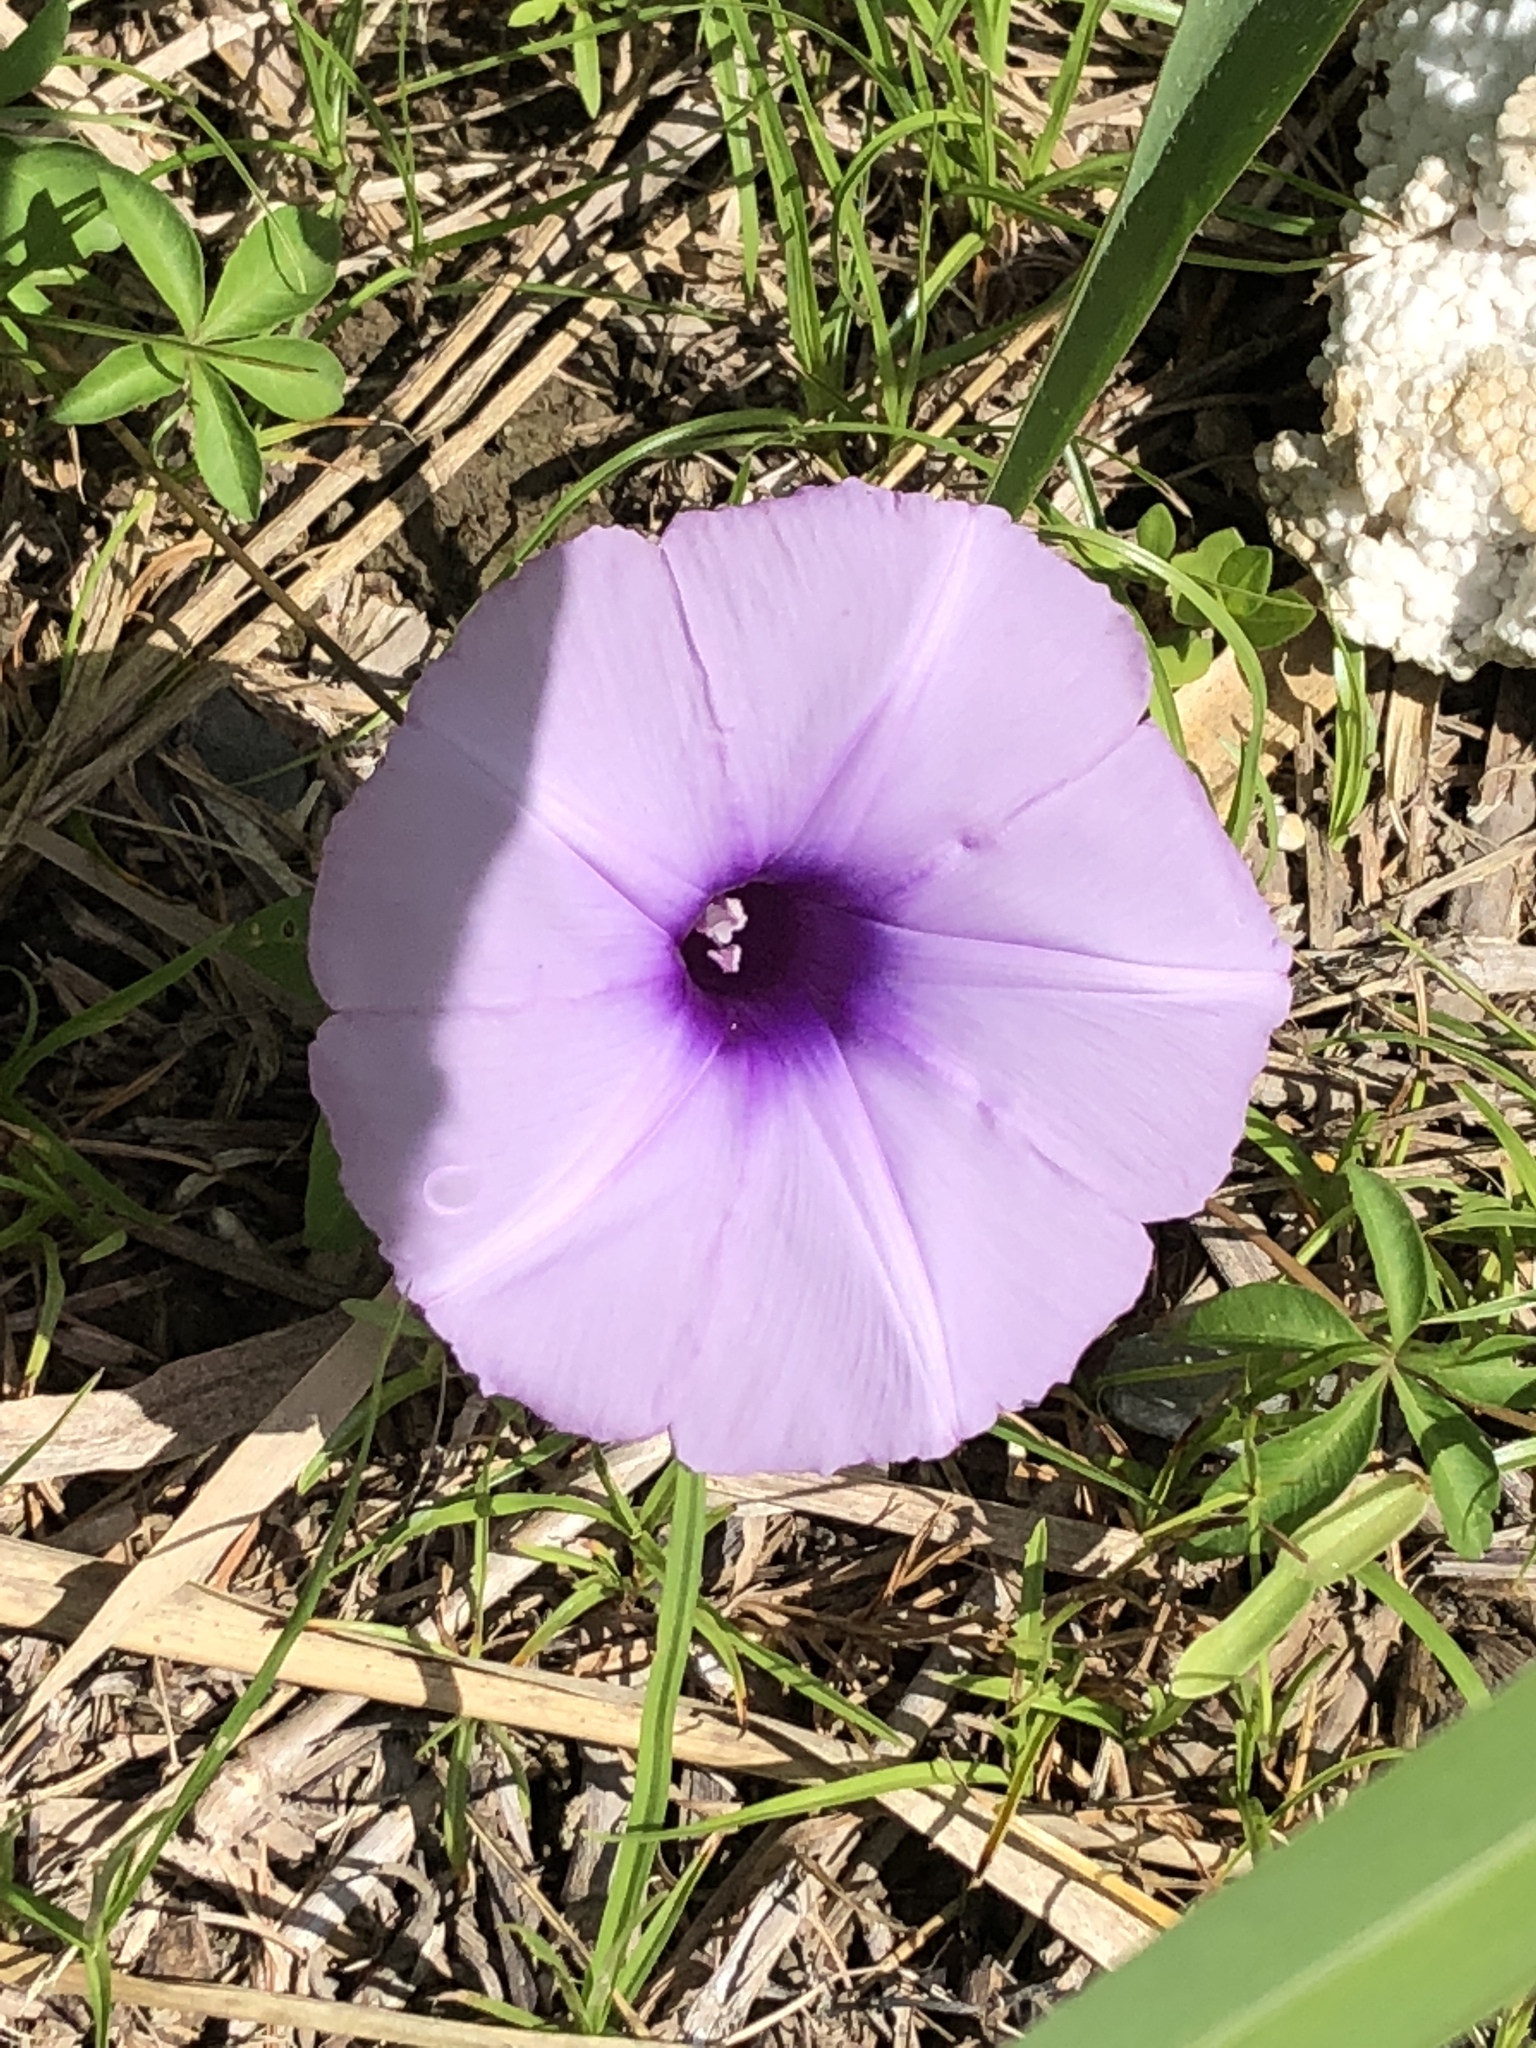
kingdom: Plantae
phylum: Tracheophyta
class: Magnoliopsida
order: Solanales
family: Convolvulaceae
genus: Ipomoea
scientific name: Ipomoea cairica
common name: Mile a minute vine
